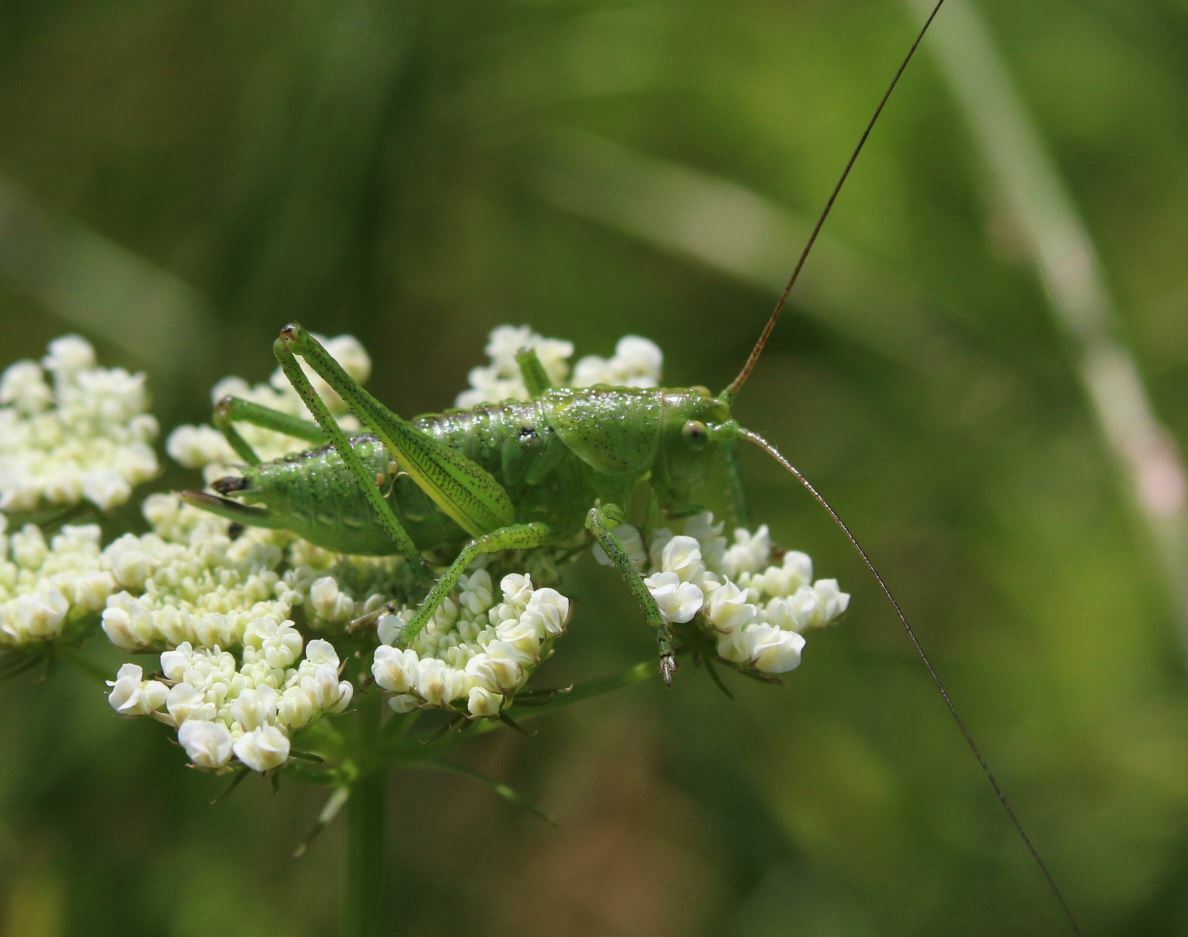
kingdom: Animalia
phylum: Arthropoda
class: Insecta
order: Orthoptera
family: Tettigoniidae
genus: Tettigonia
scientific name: Tettigonia viridissima
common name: Great green bush-cricket
